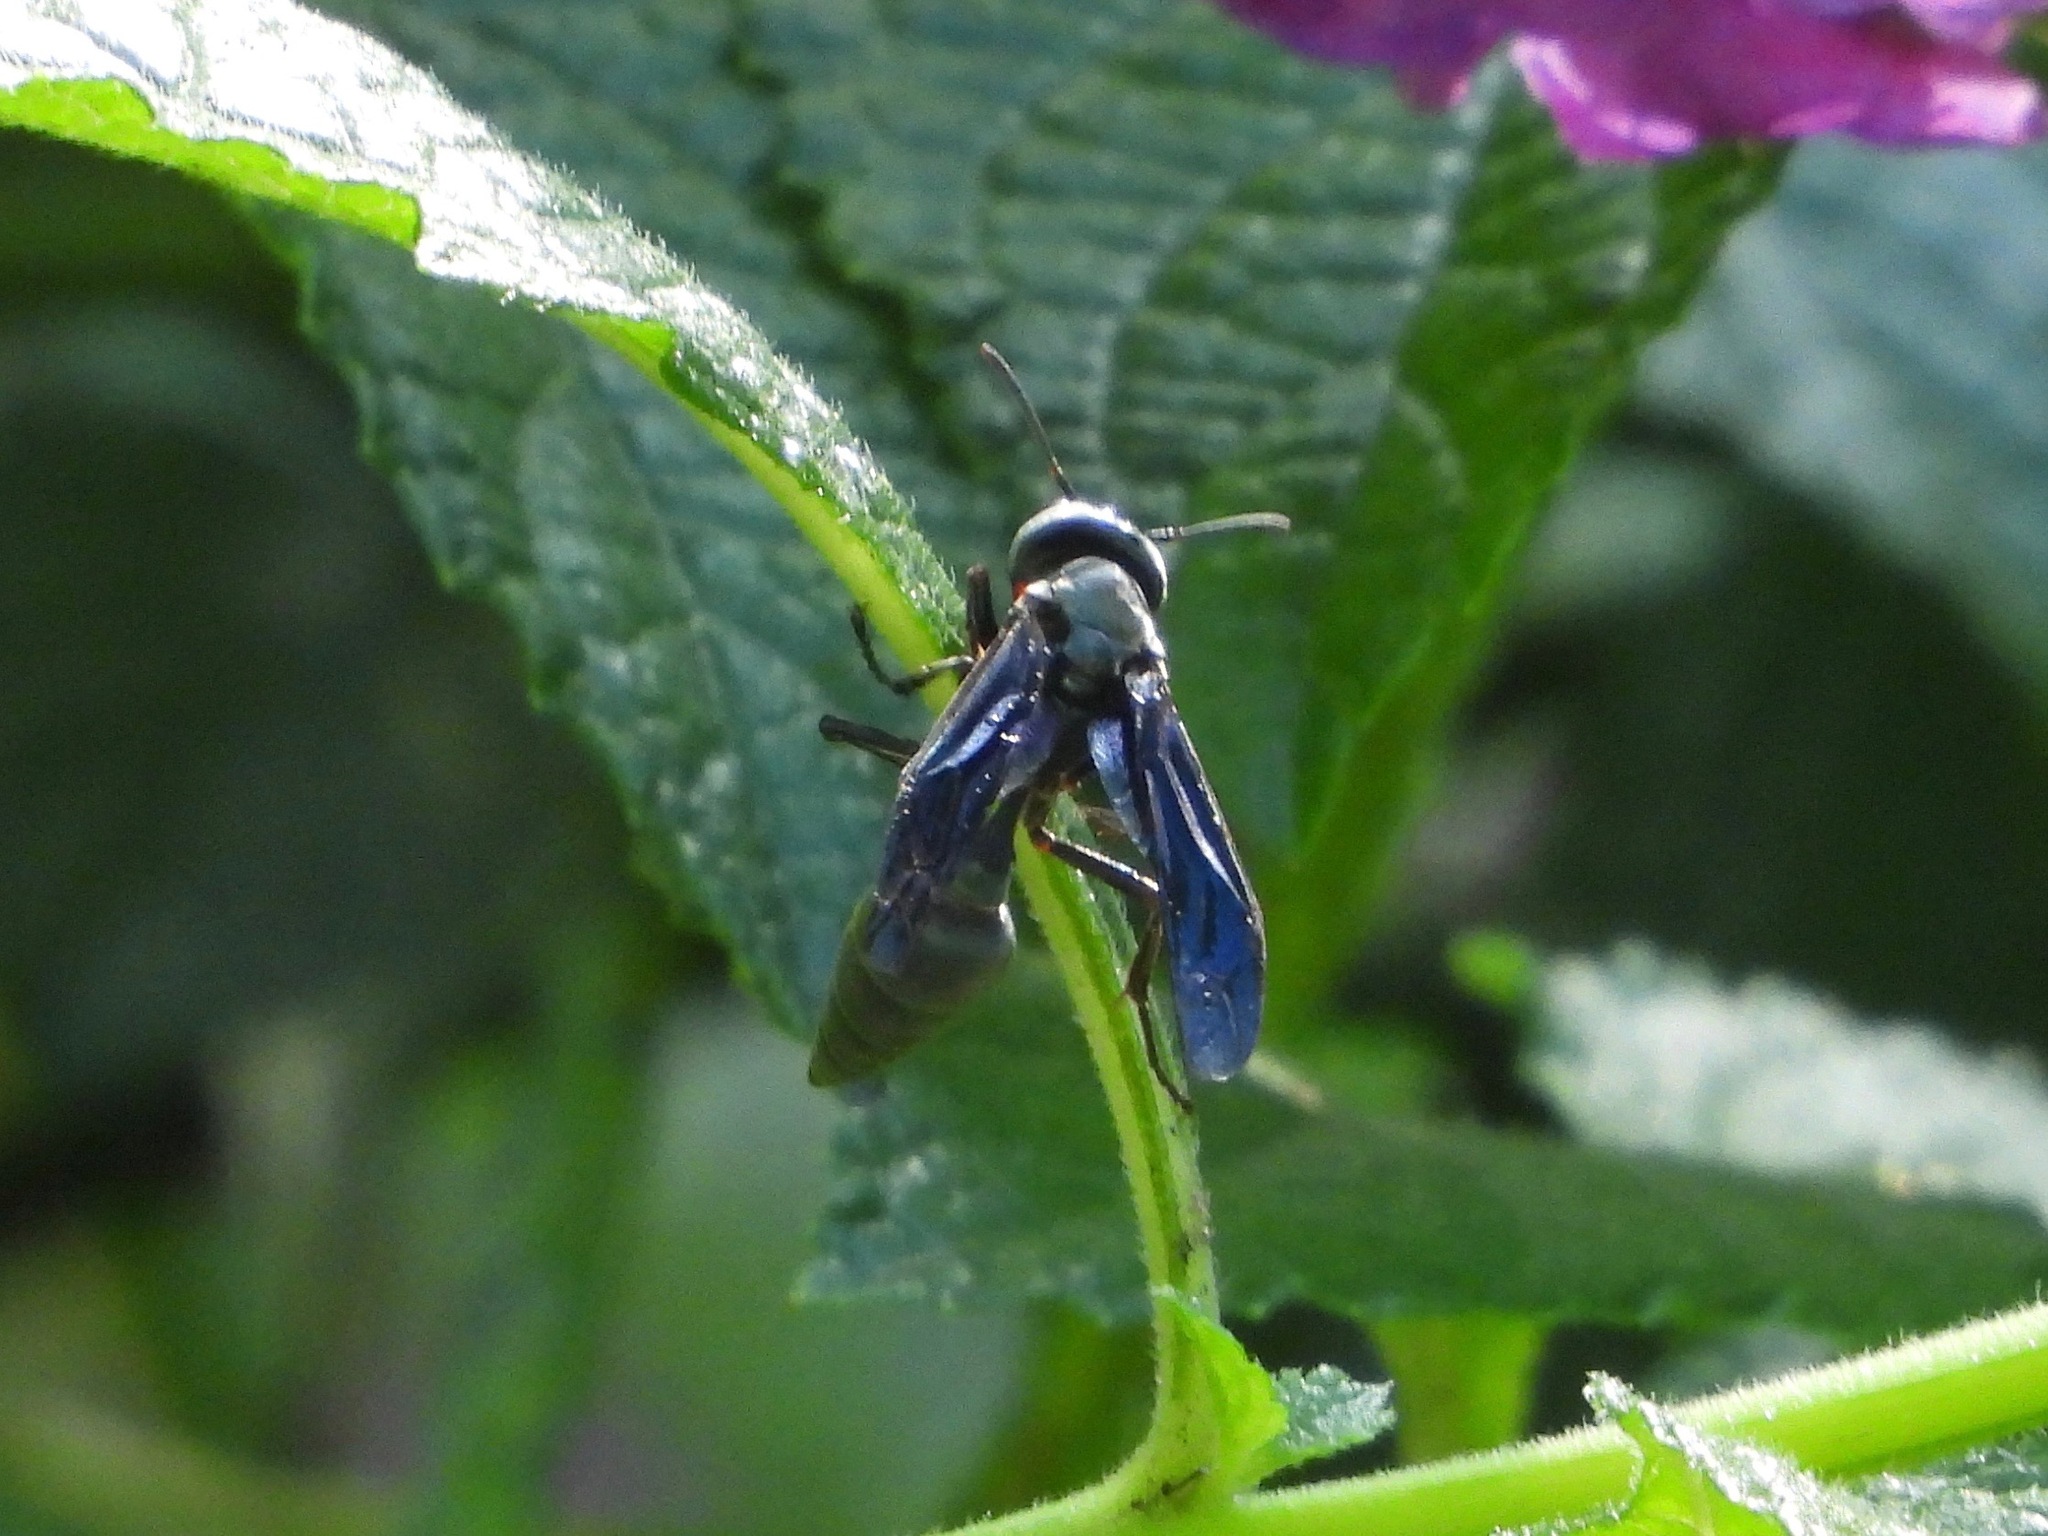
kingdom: Animalia
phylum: Arthropoda
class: Insecta
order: Hymenoptera
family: Vespidae
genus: Synoeca
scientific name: Synoeca septentrionalis
